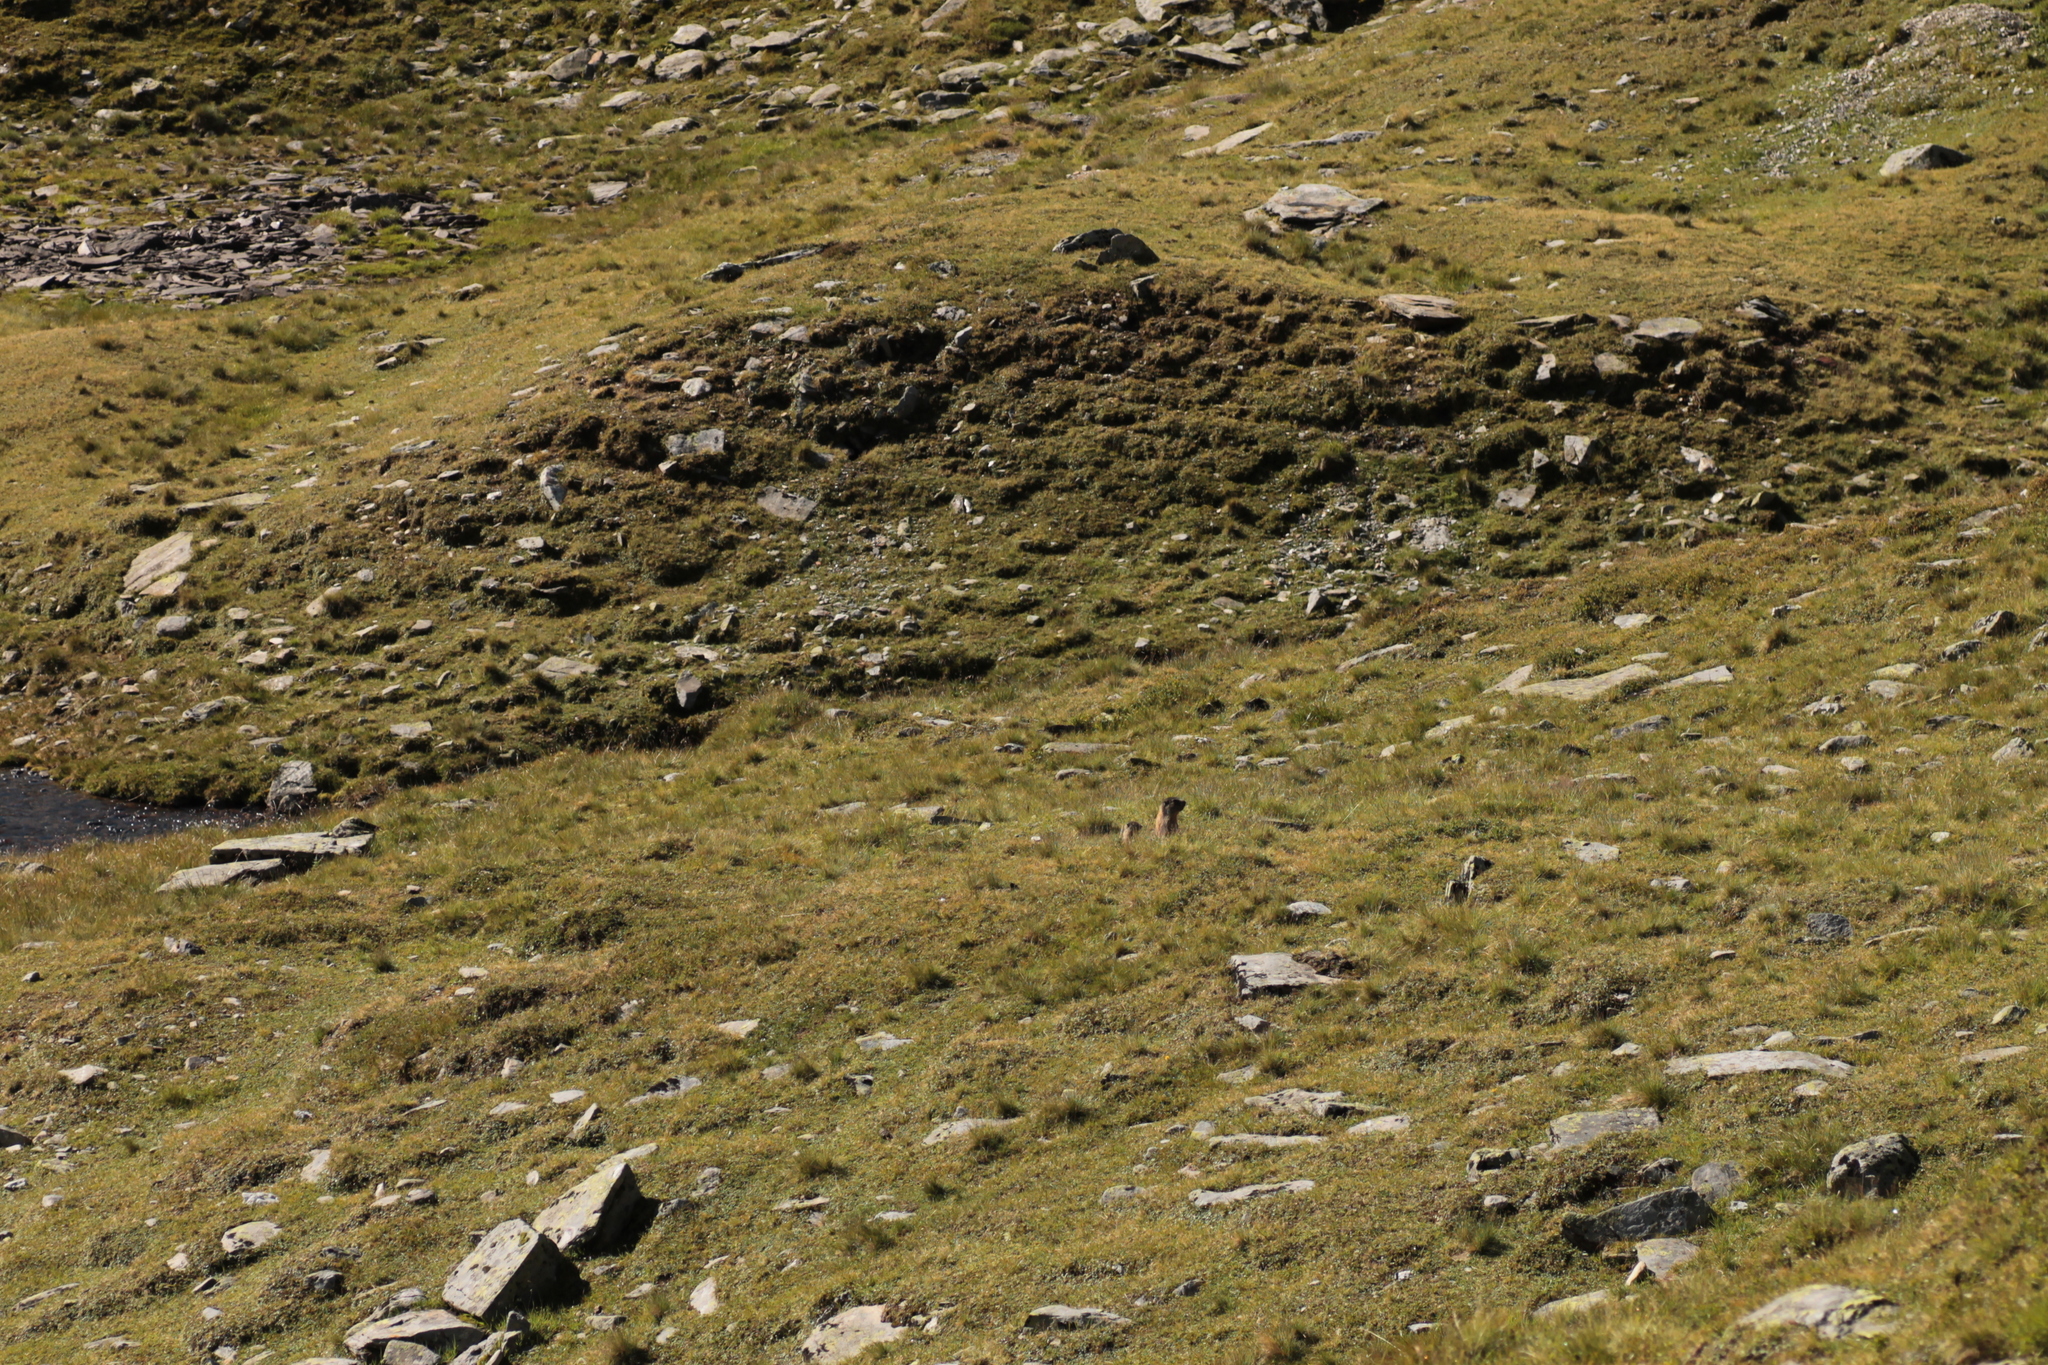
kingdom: Animalia
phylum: Chordata
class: Mammalia
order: Rodentia
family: Sciuridae
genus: Marmota
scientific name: Marmota marmota
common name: Alpine marmot
